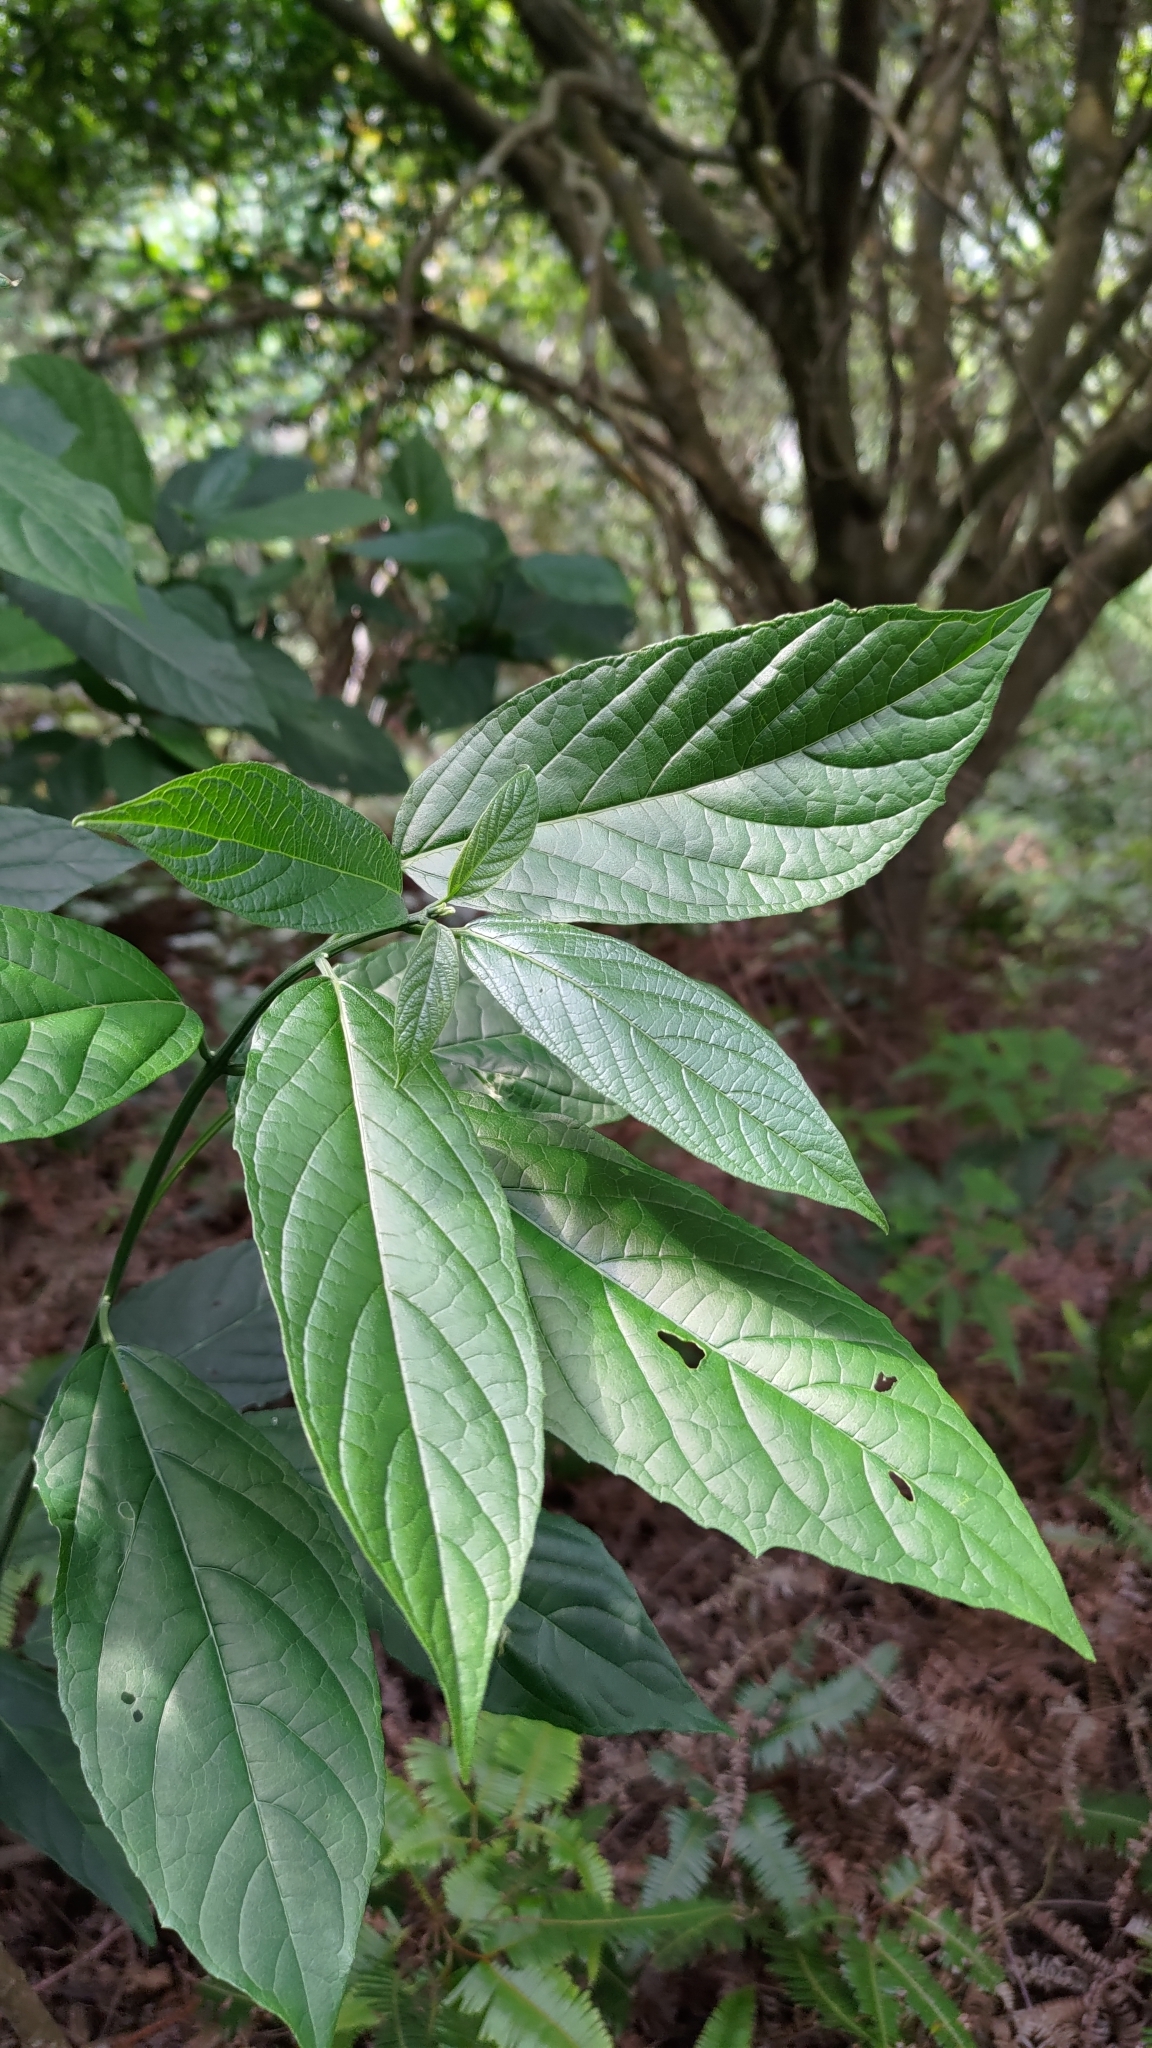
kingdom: Plantae
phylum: Tracheophyta
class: Magnoliopsida
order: Lamiales
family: Lamiaceae
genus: Clerodendrum
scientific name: Clerodendrum cyrtophyllum
